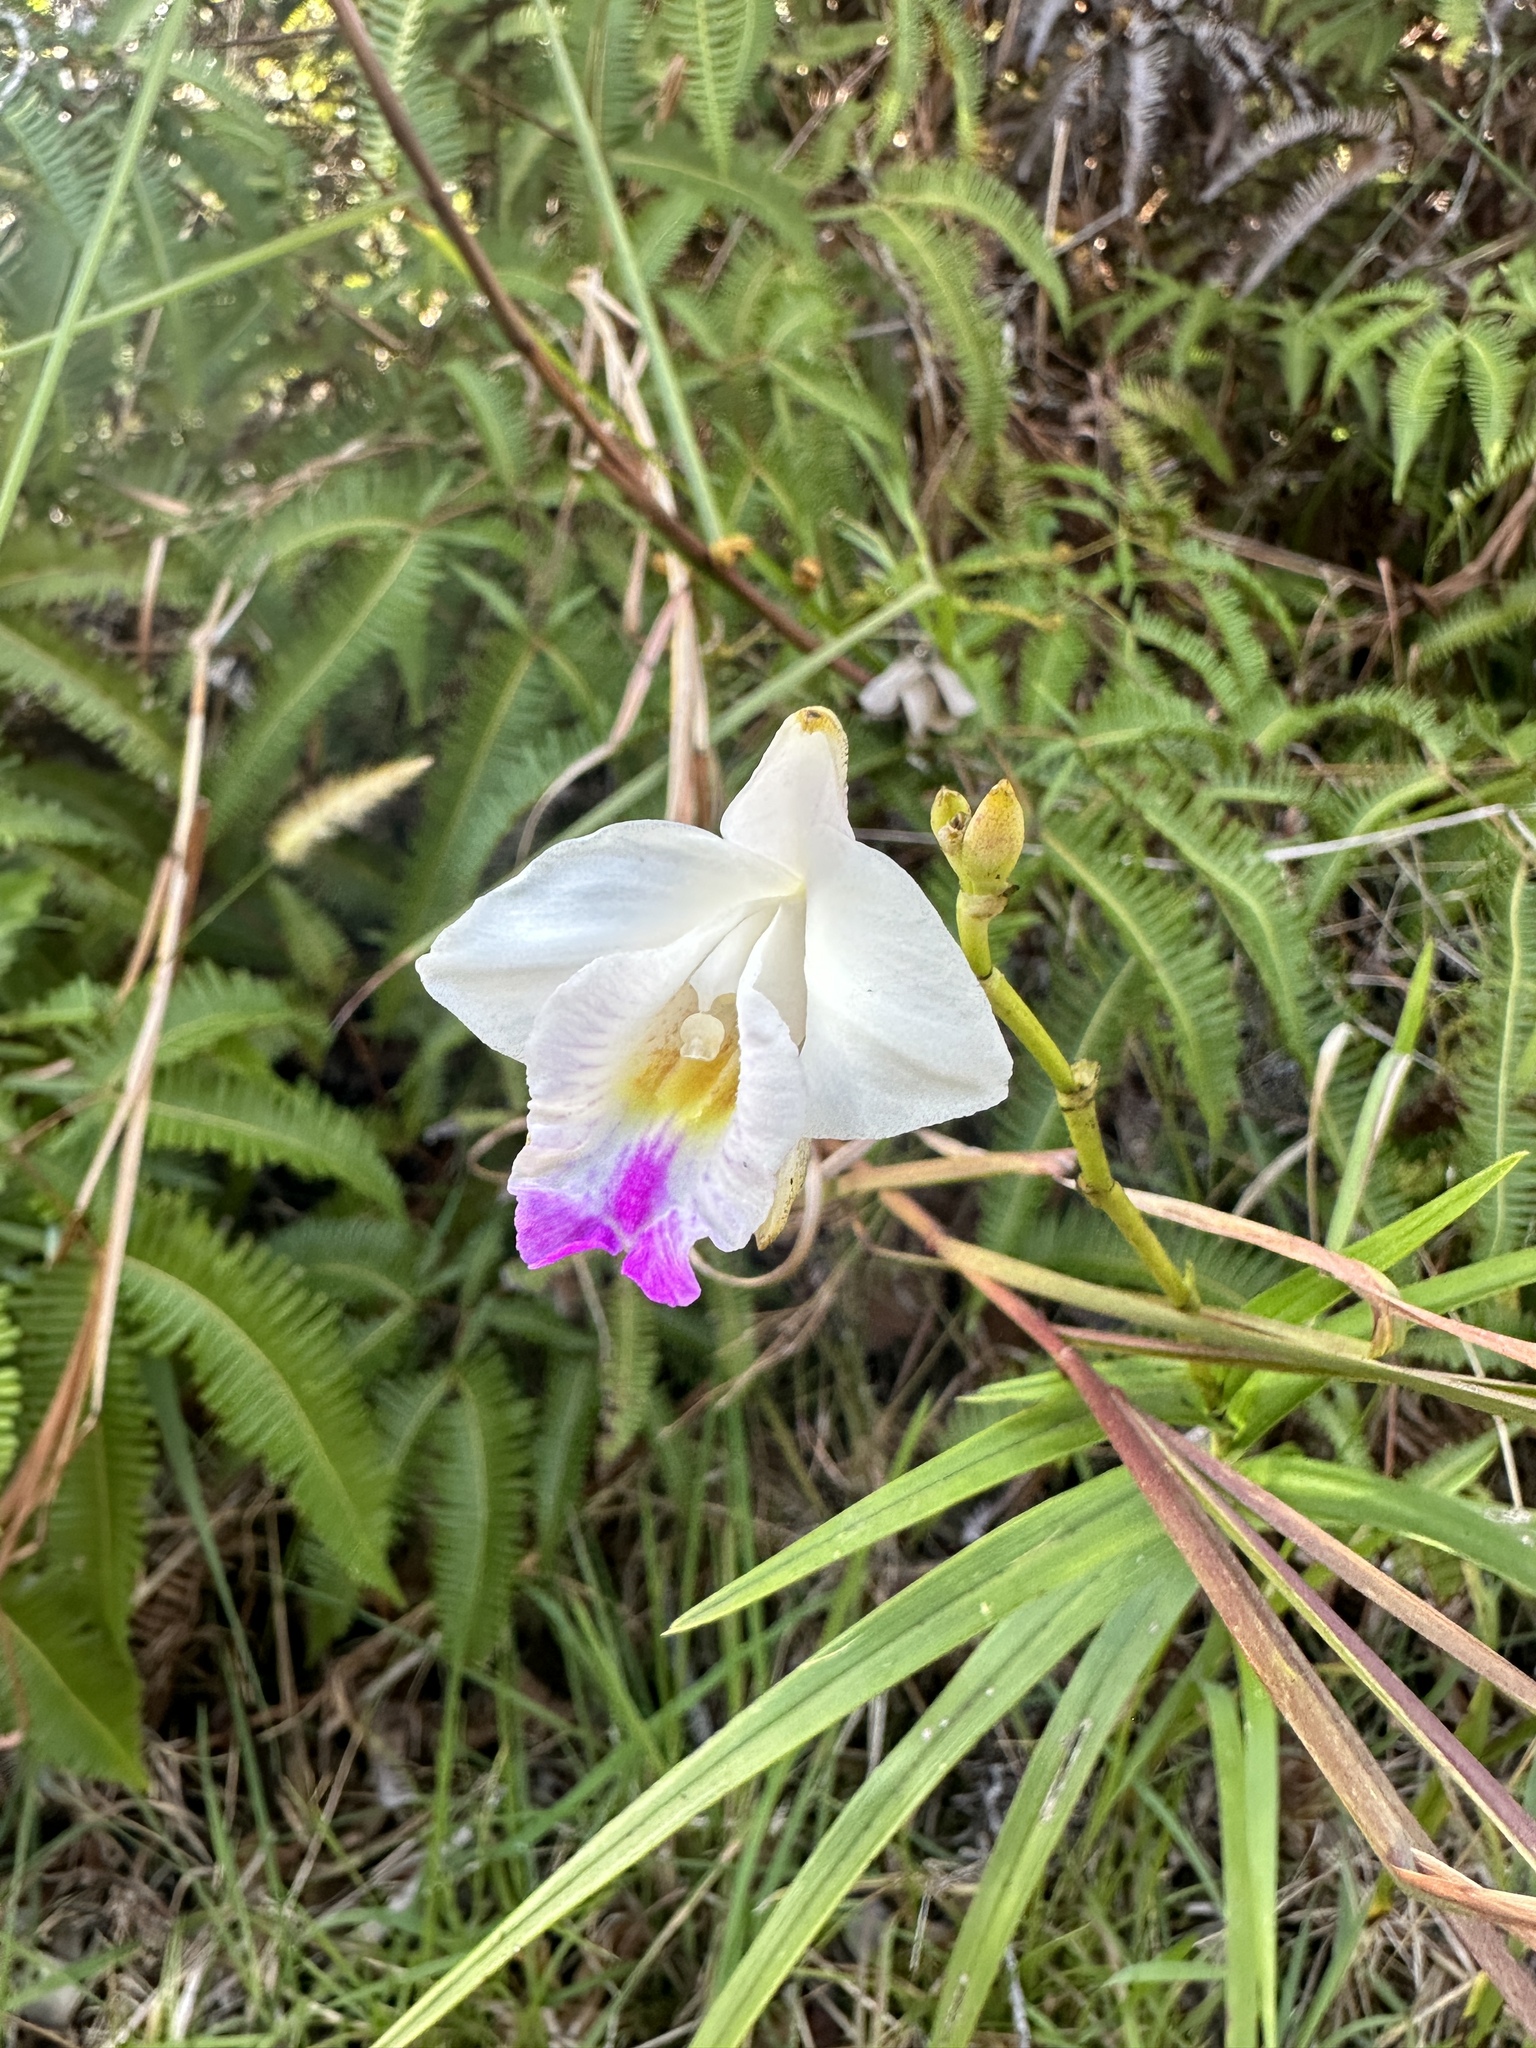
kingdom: Plantae
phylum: Tracheophyta
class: Liliopsida
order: Asparagales
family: Orchidaceae
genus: Arundina
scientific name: Arundina graminifolia
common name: Bamboo orchid
